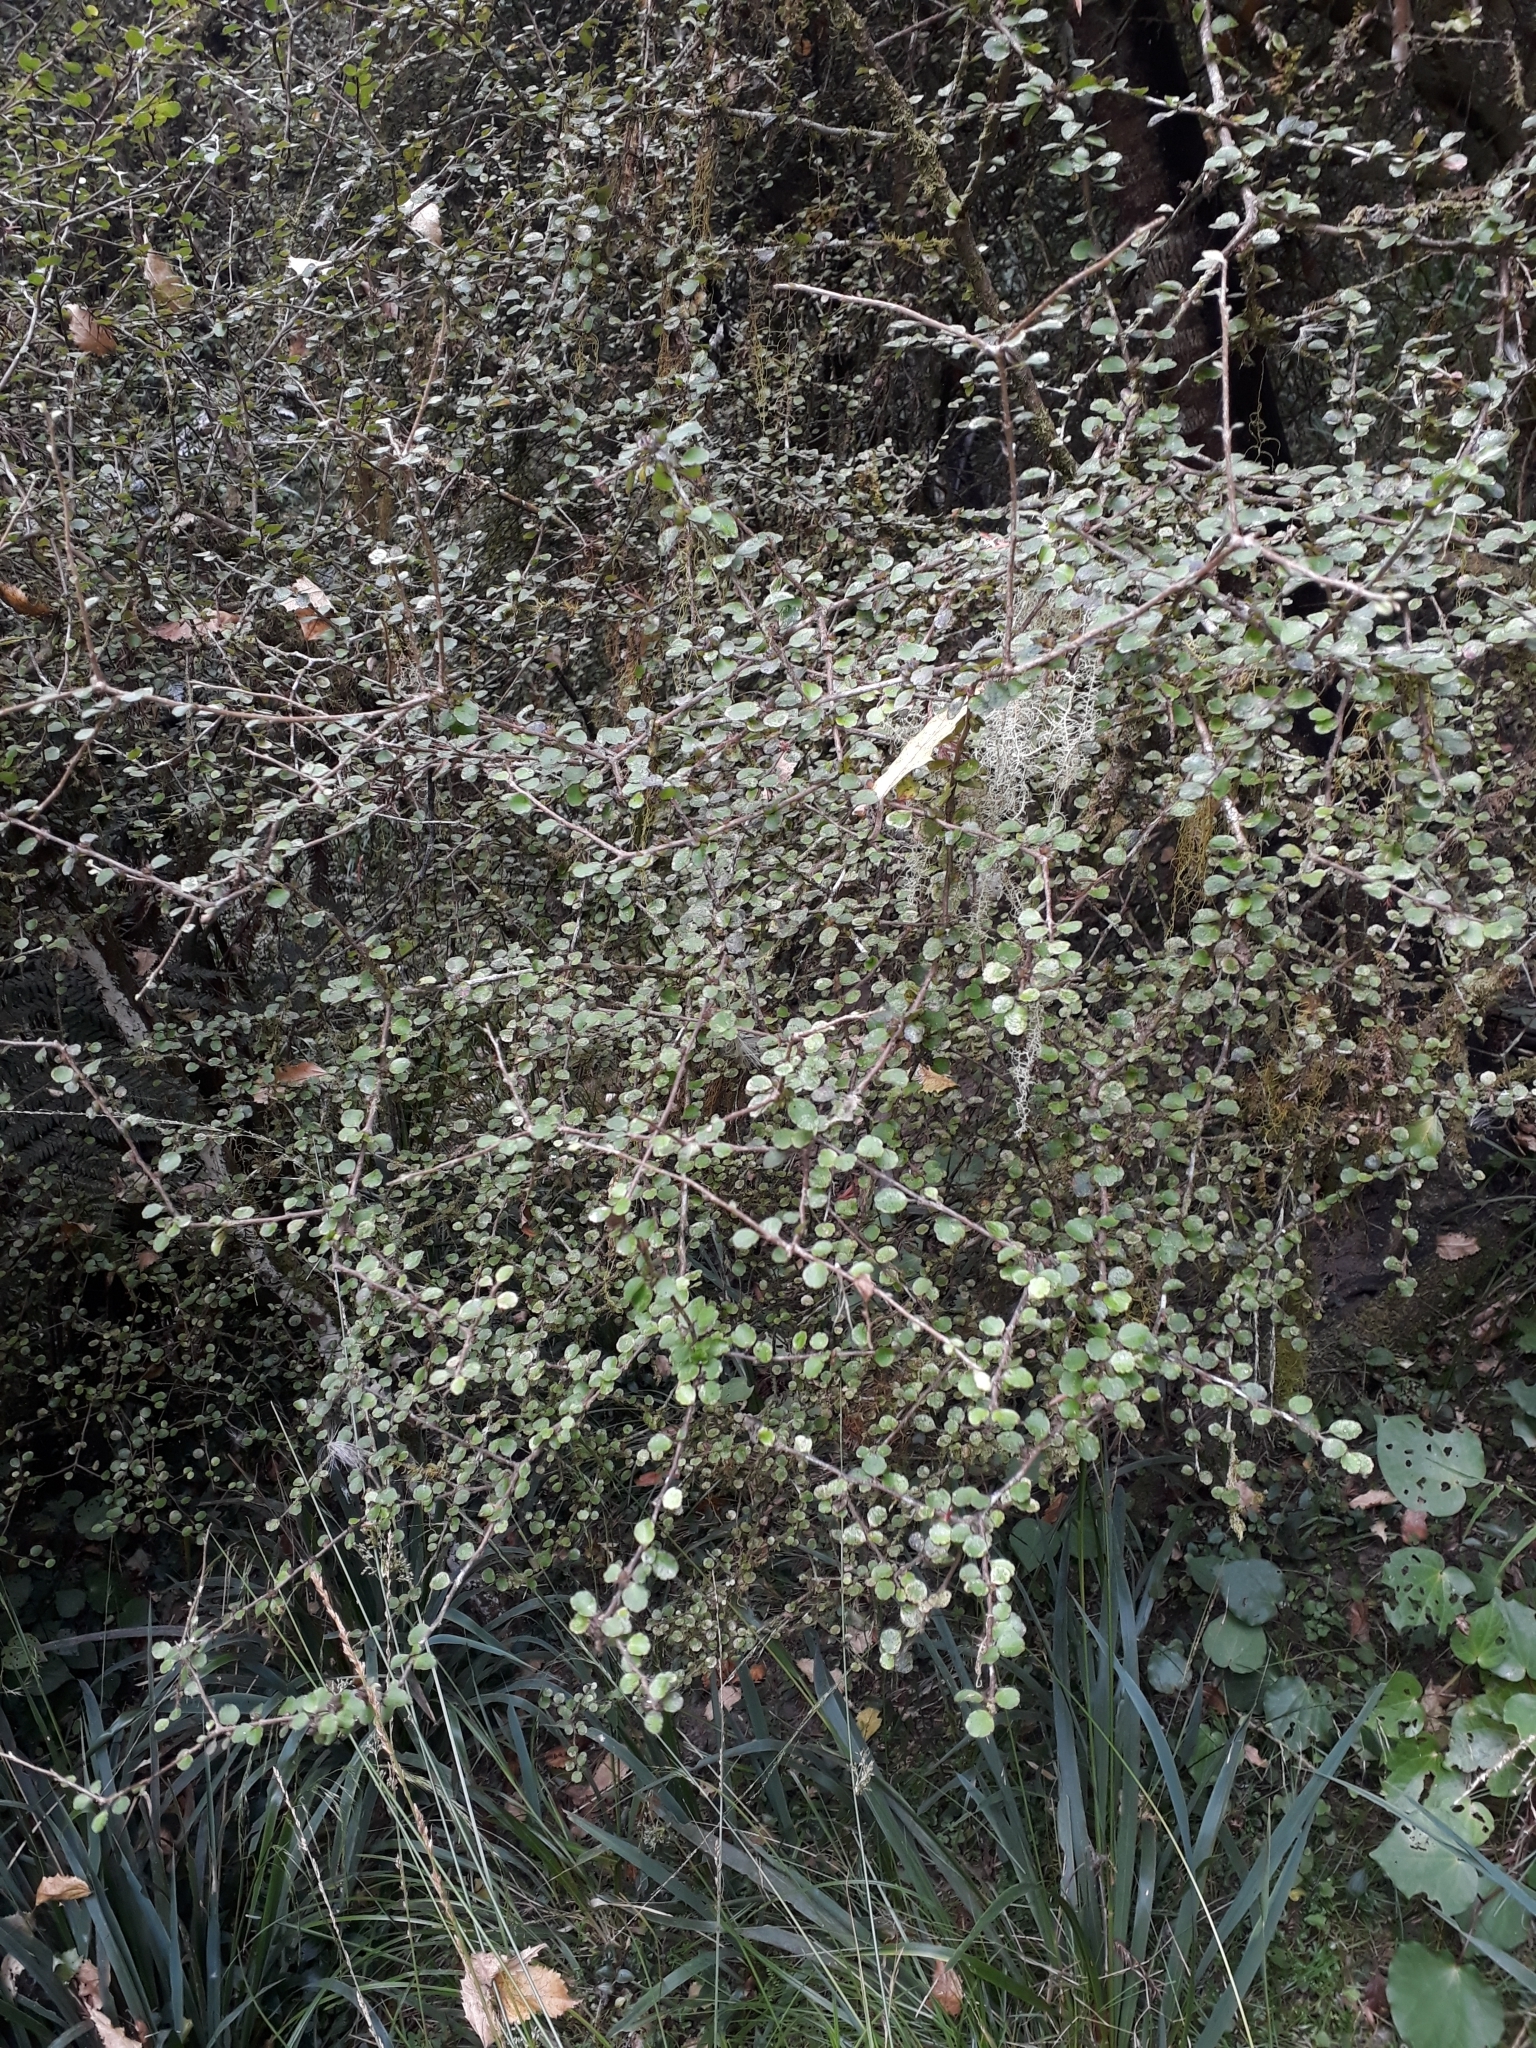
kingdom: Plantae
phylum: Tracheophyta
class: Magnoliopsida
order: Apiales
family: Araliaceae
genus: Raukaua
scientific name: Raukaua anomalus
